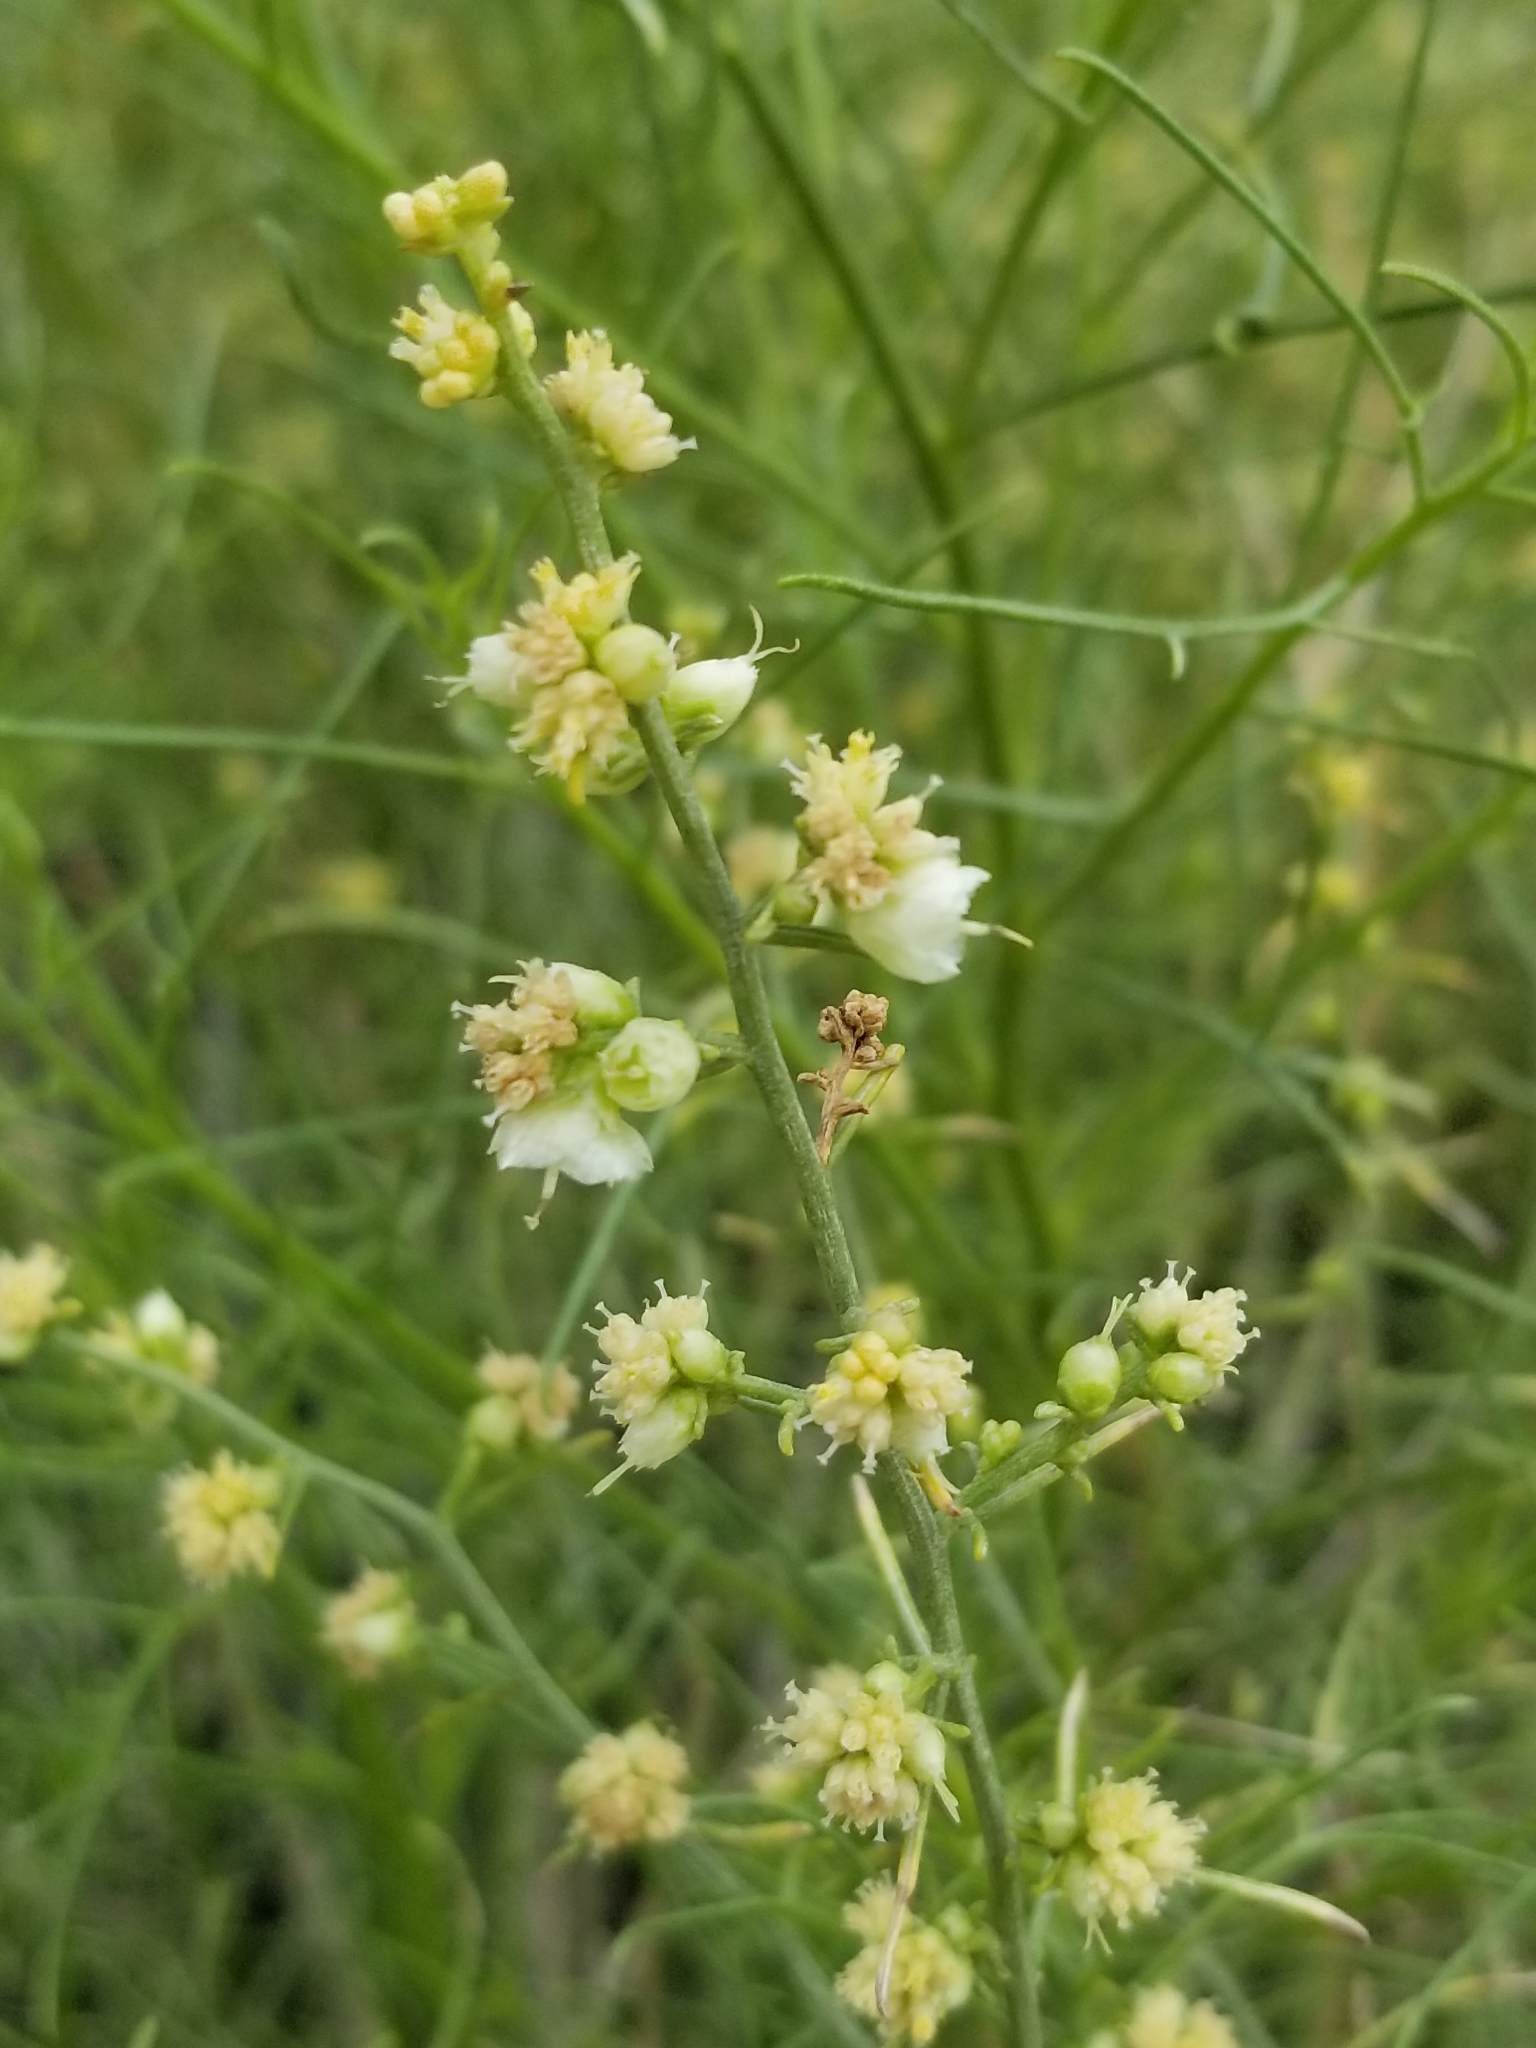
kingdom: Plantae
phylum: Tracheophyta
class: Magnoliopsida
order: Asterales
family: Asteraceae
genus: Ambrosia
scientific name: Ambrosia salsola
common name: Burrobrush
